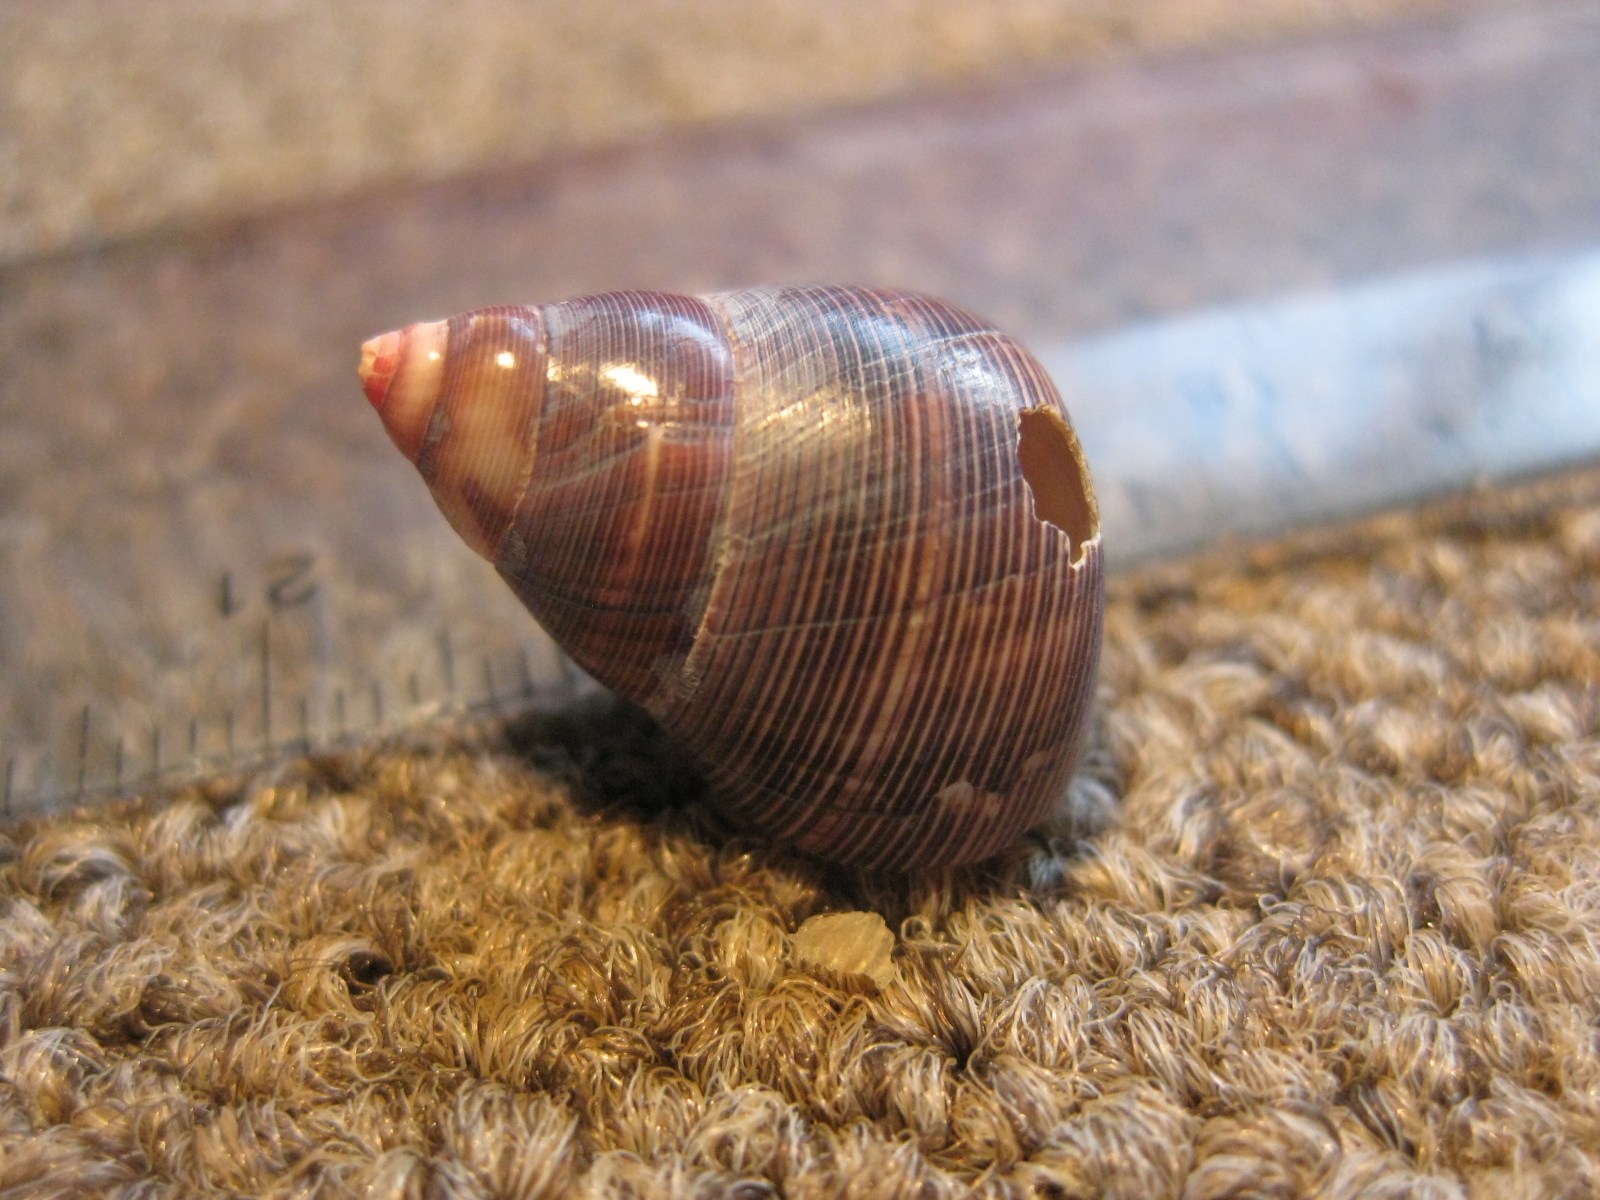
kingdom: Animalia
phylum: Mollusca
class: Gastropoda
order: Trochida
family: Trochidae
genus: Cantharidus
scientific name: Cantharidus capillaceus
